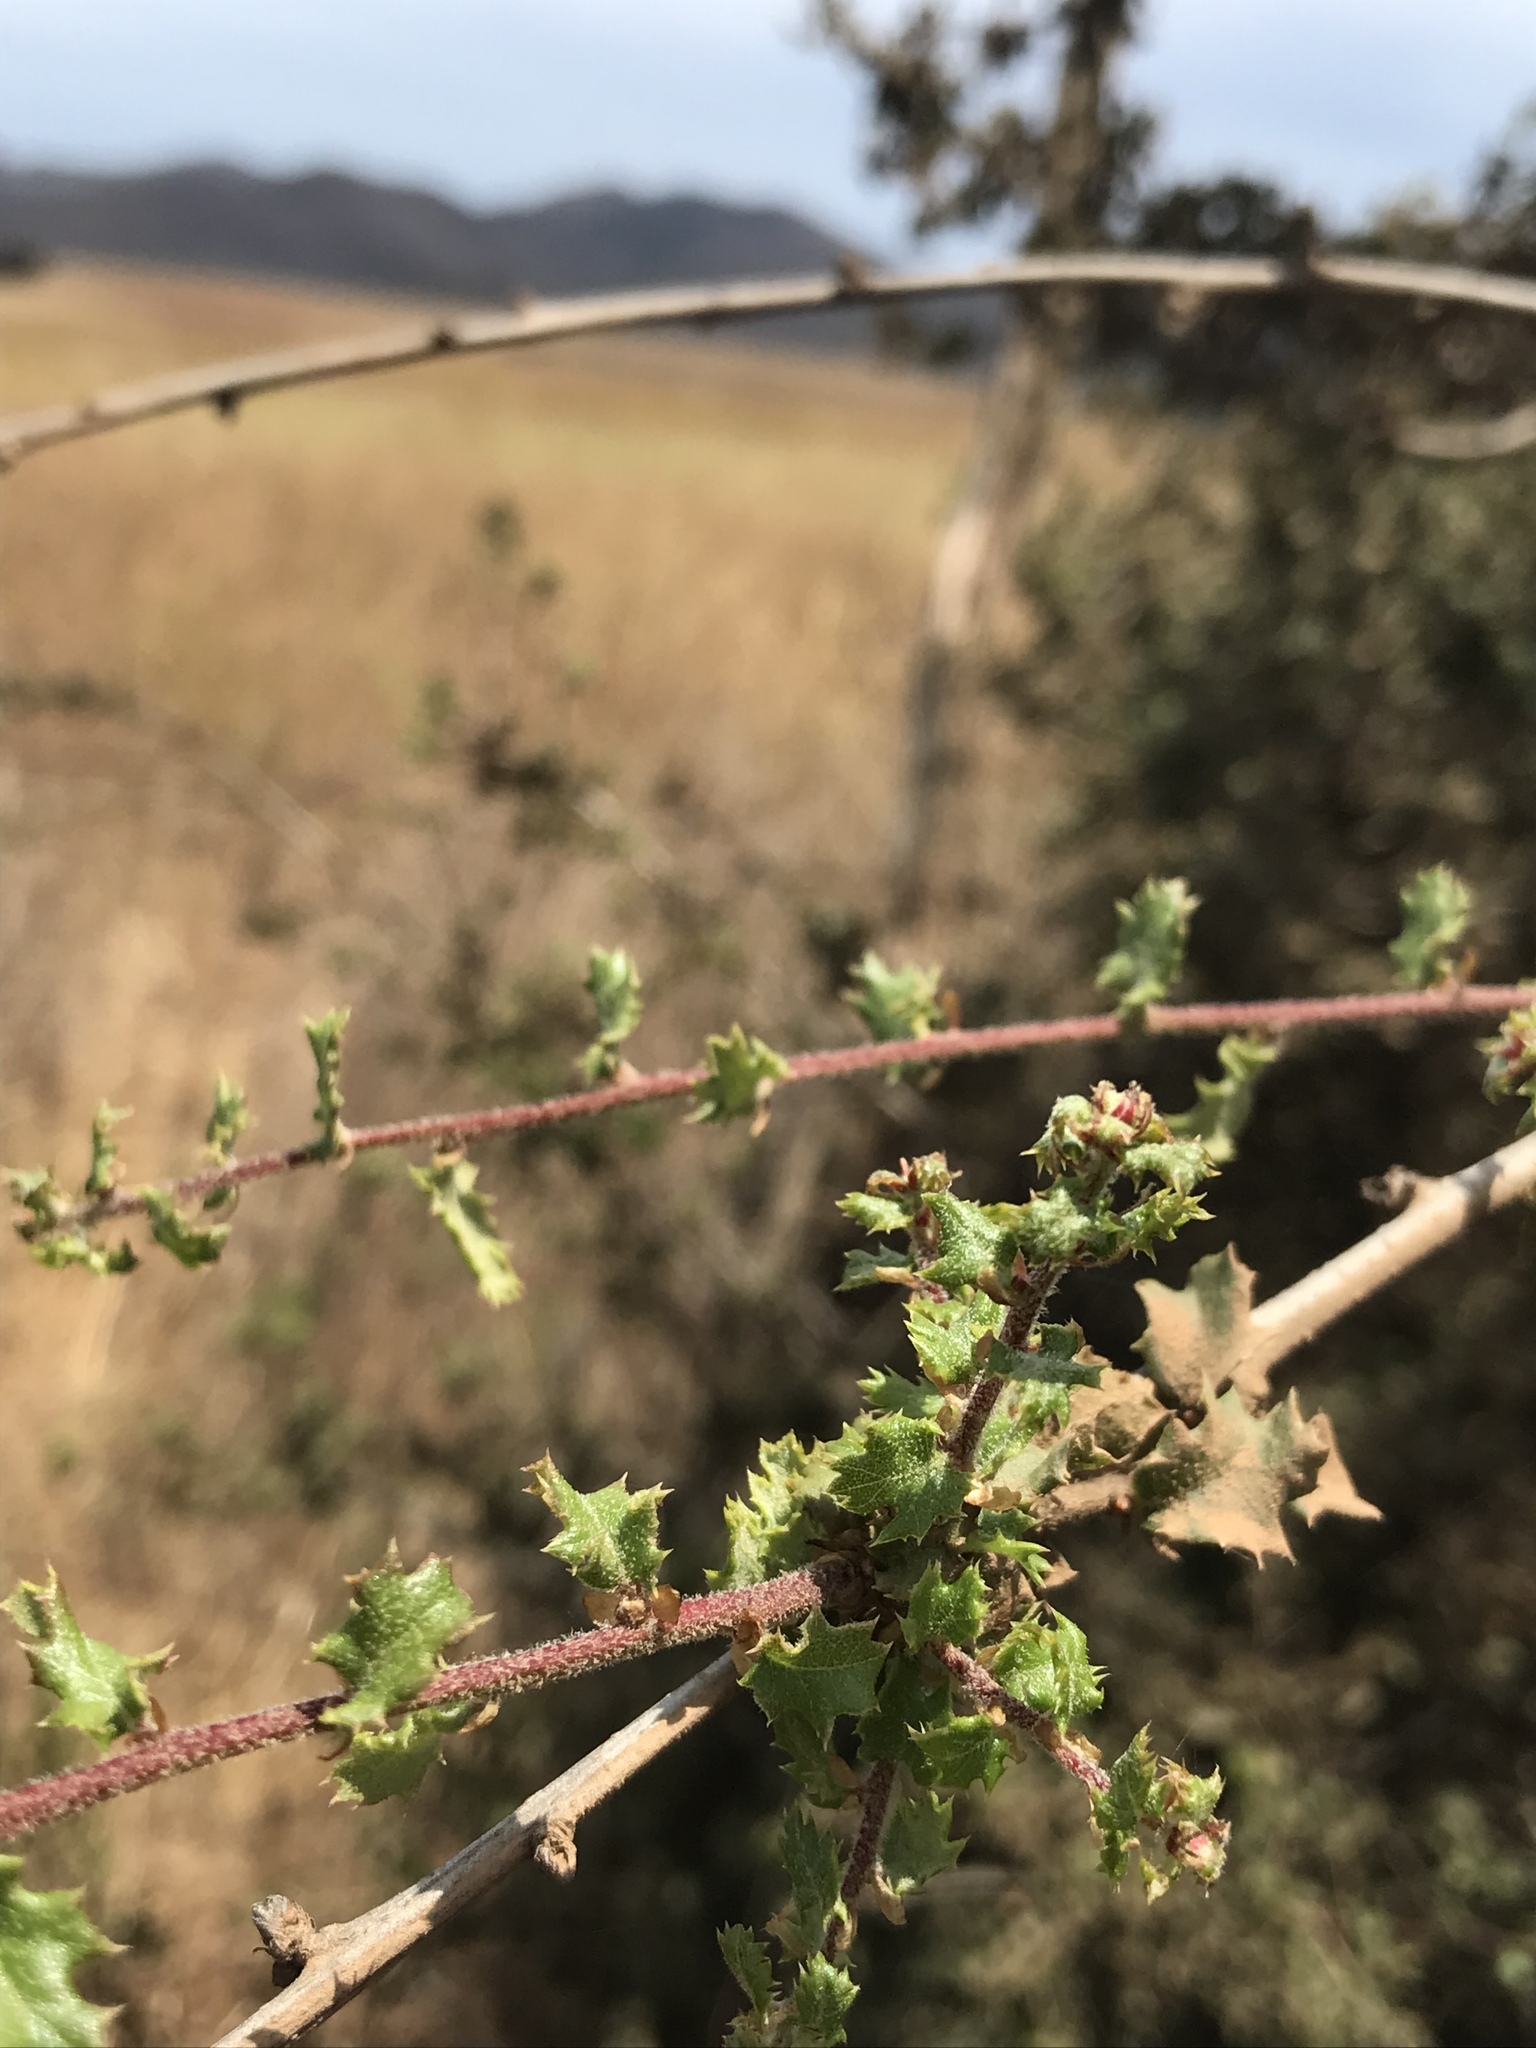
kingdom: Plantae
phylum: Tracheophyta
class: Magnoliopsida
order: Fagales
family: Fagaceae
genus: Quercus
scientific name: Quercus dumosa
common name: Coastal sage scrub oak
